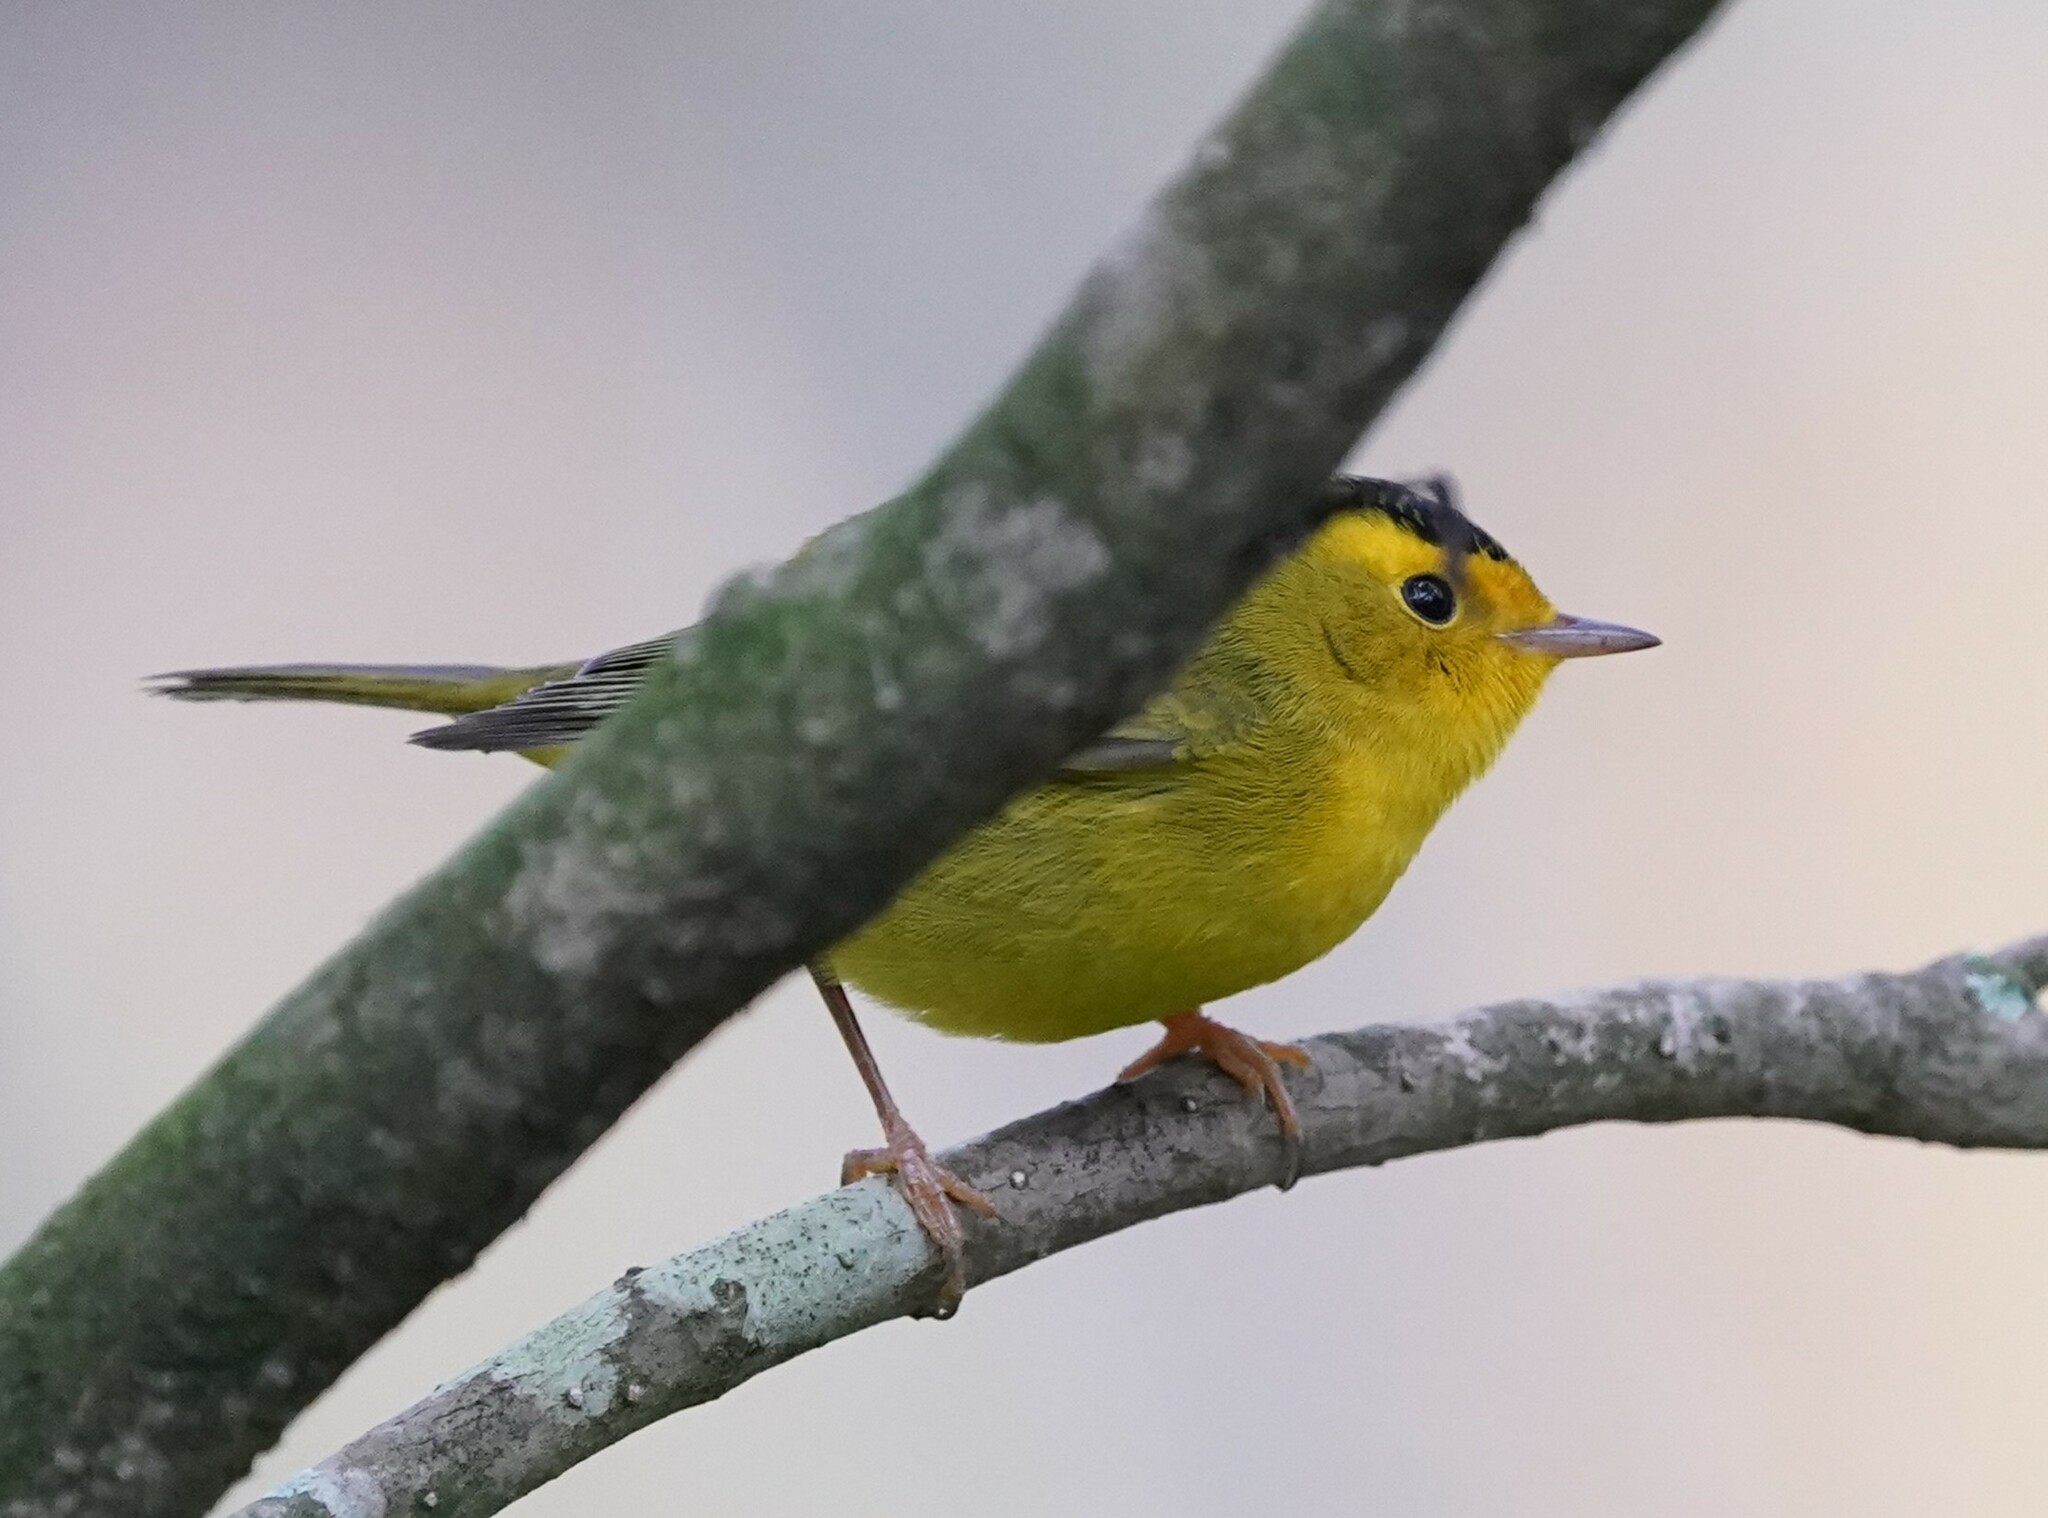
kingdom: Animalia
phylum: Chordata
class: Aves
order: Passeriformes
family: Parulidae
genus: Cardellina
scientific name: Cardellina pusilla
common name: Wilson's warbler
